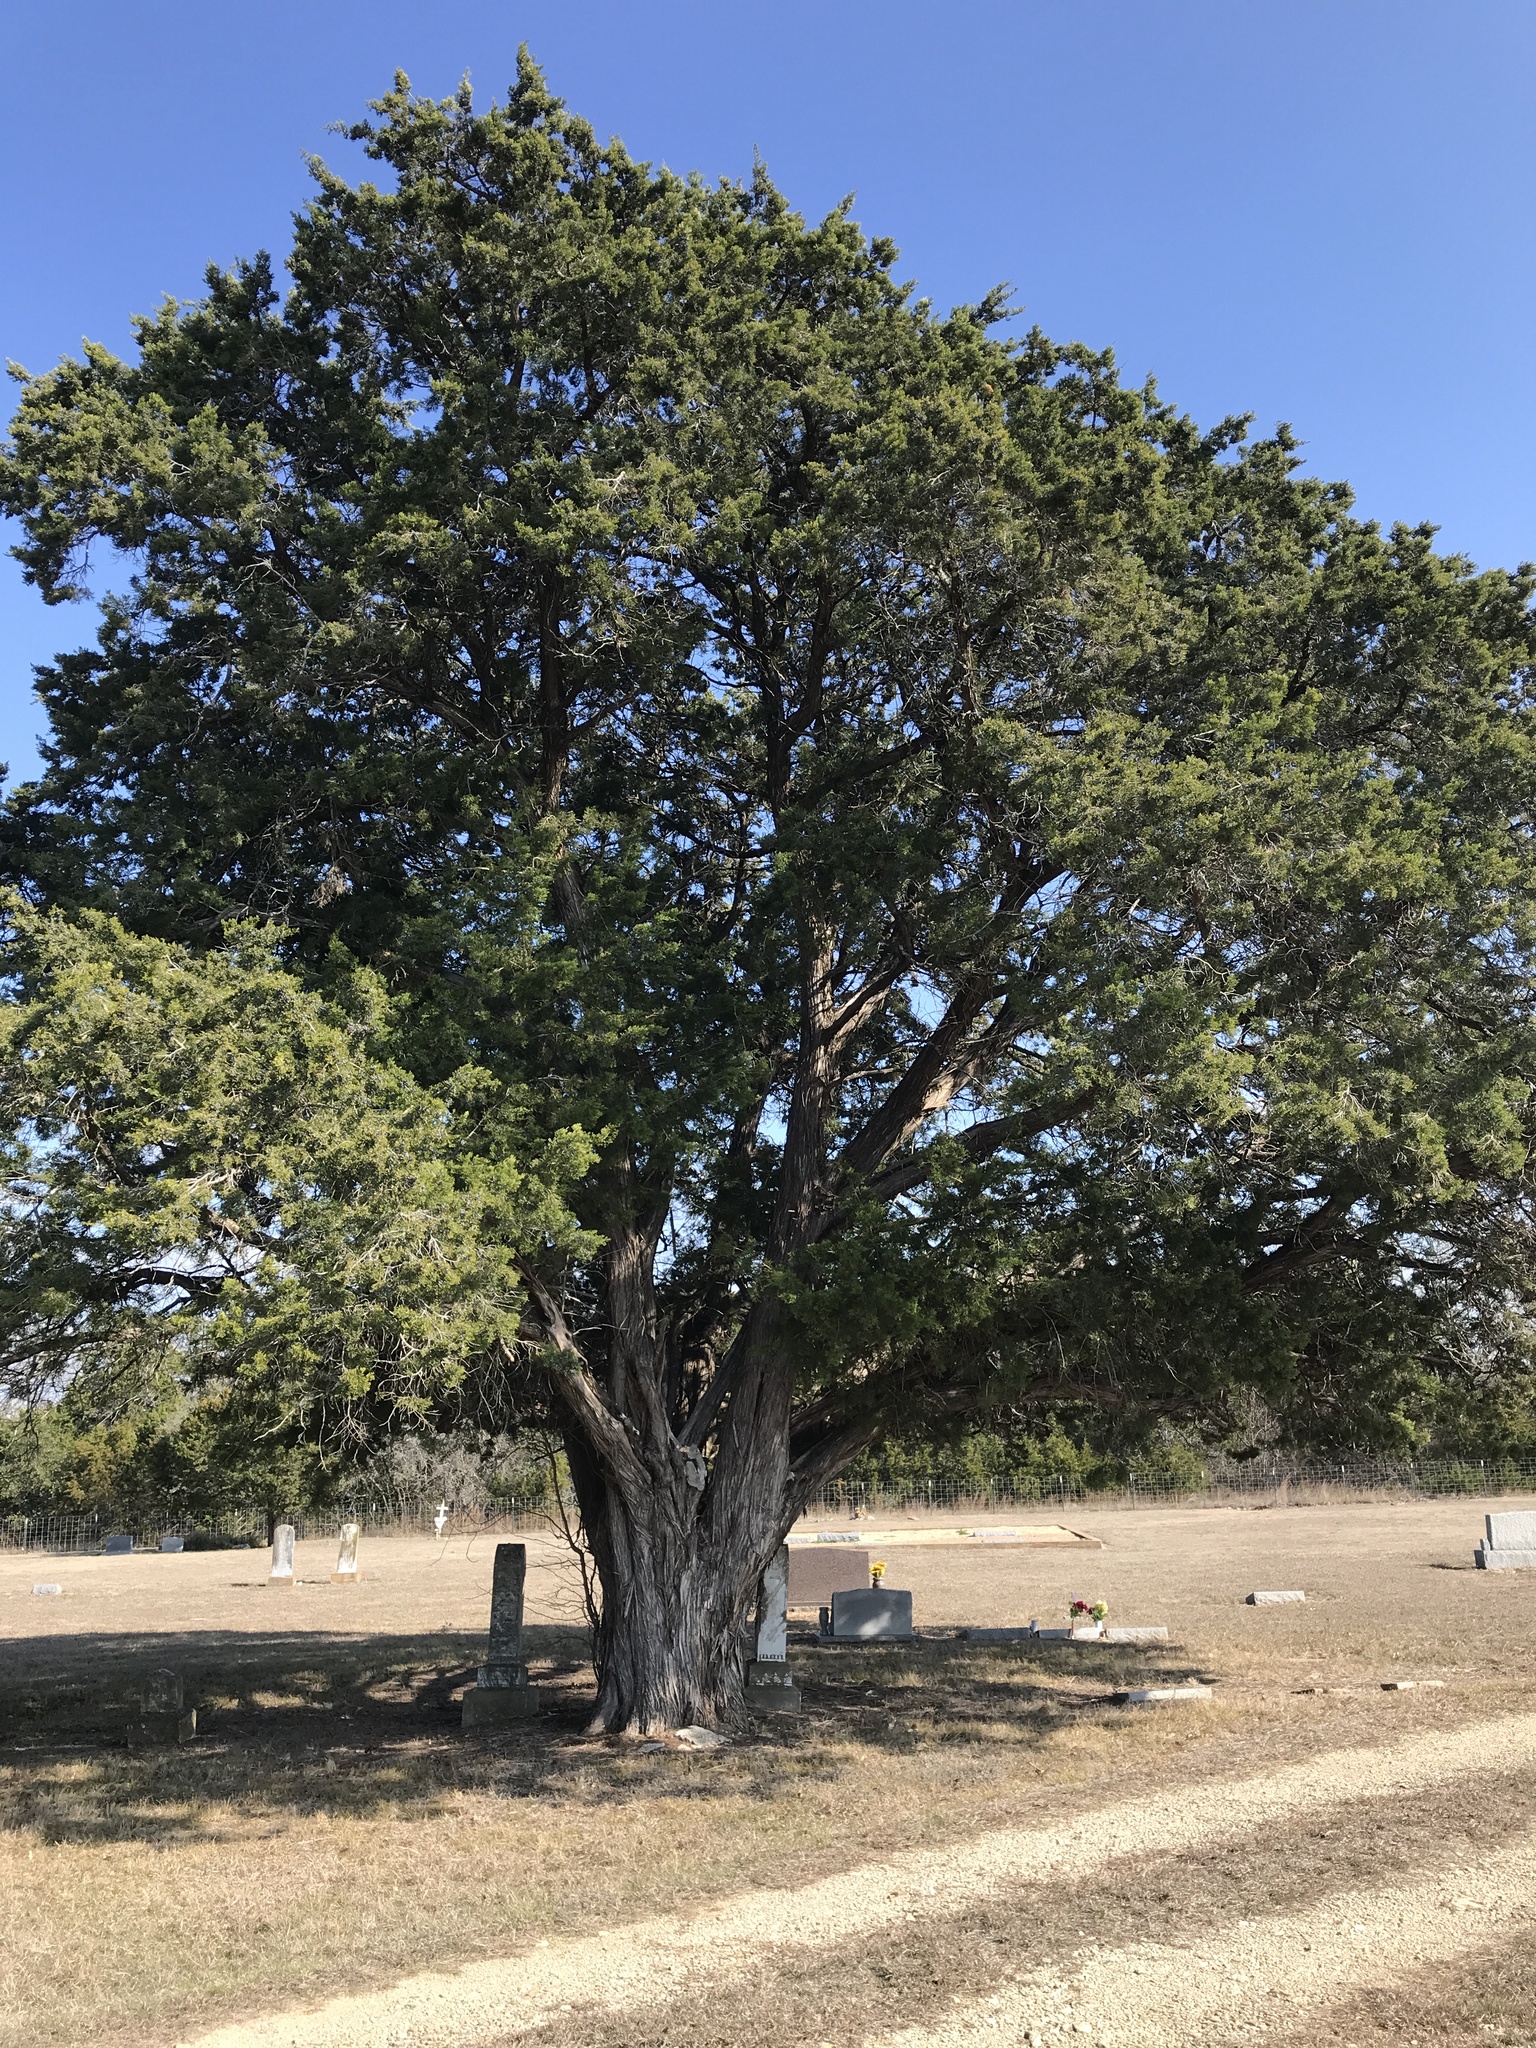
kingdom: Plantae
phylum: Tracheophyta
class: Pinopsida
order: Pinales
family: Cupressaceae
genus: Juniperus
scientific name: Juniperus ashei
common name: Mexican juniper
